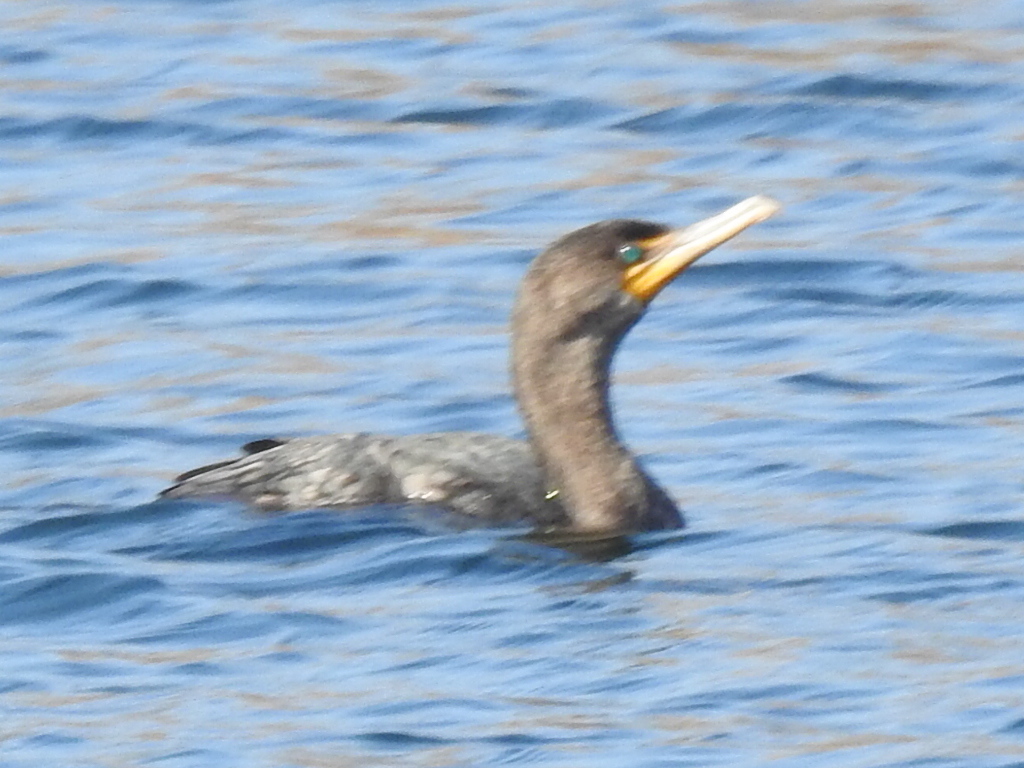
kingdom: Animalia
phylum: Chordata
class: Aves
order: Suliformes
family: Phalacrocoracidae
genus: Phalacrocorax
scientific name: Phalacrocorax auritus
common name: Double-crested cormorant
